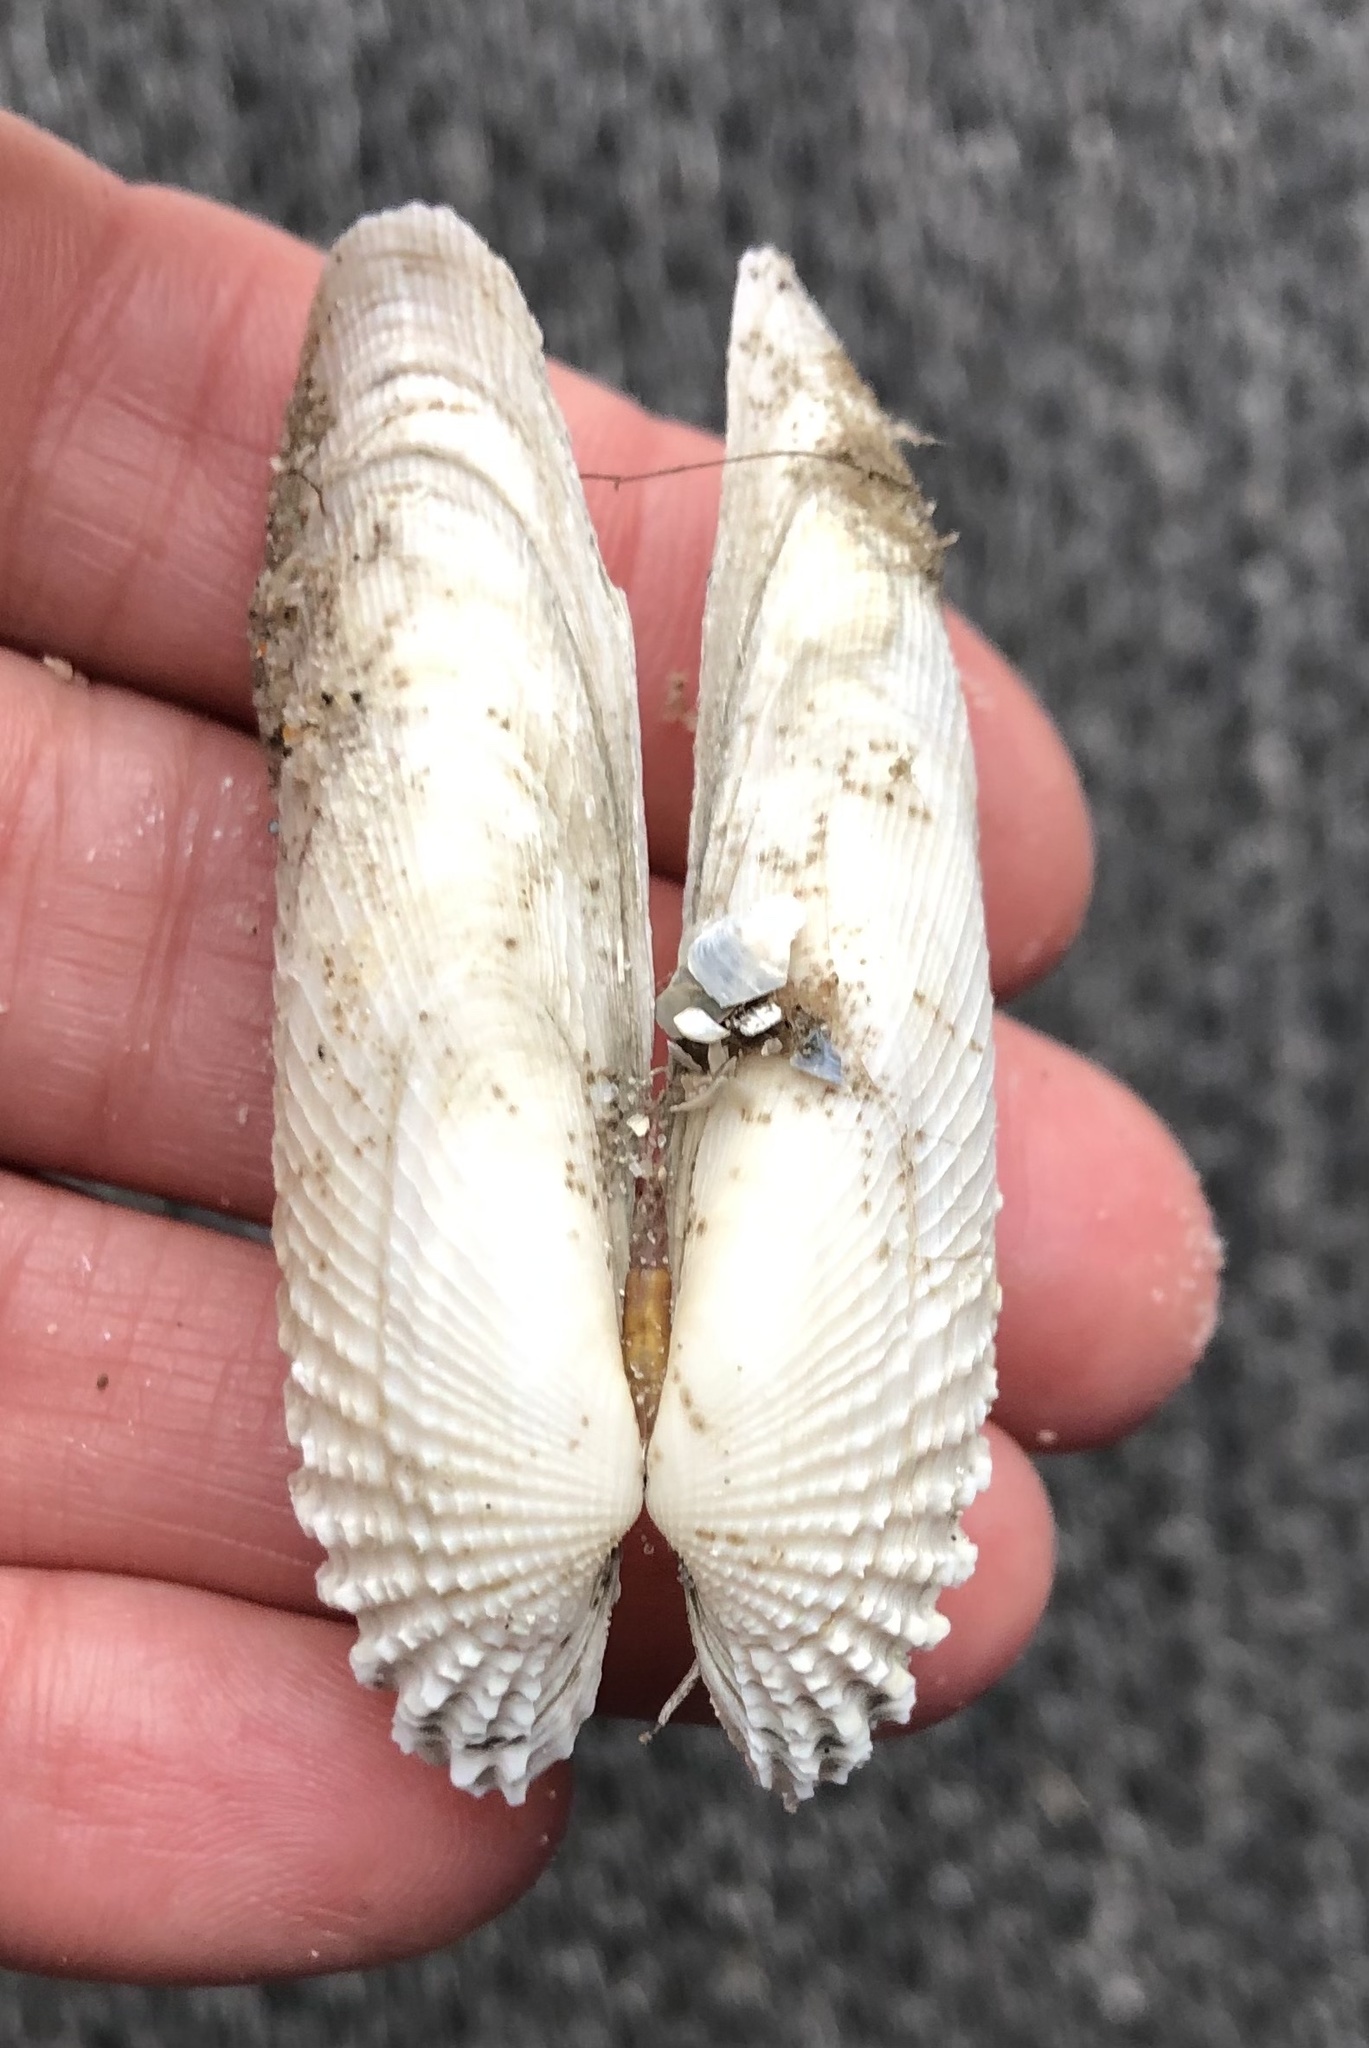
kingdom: Animalia
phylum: Mollusca
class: Bivalvia
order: Venerida
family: Veneridae
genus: Petricolaria
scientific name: Petricolaria pholadiformis
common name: American piddock
